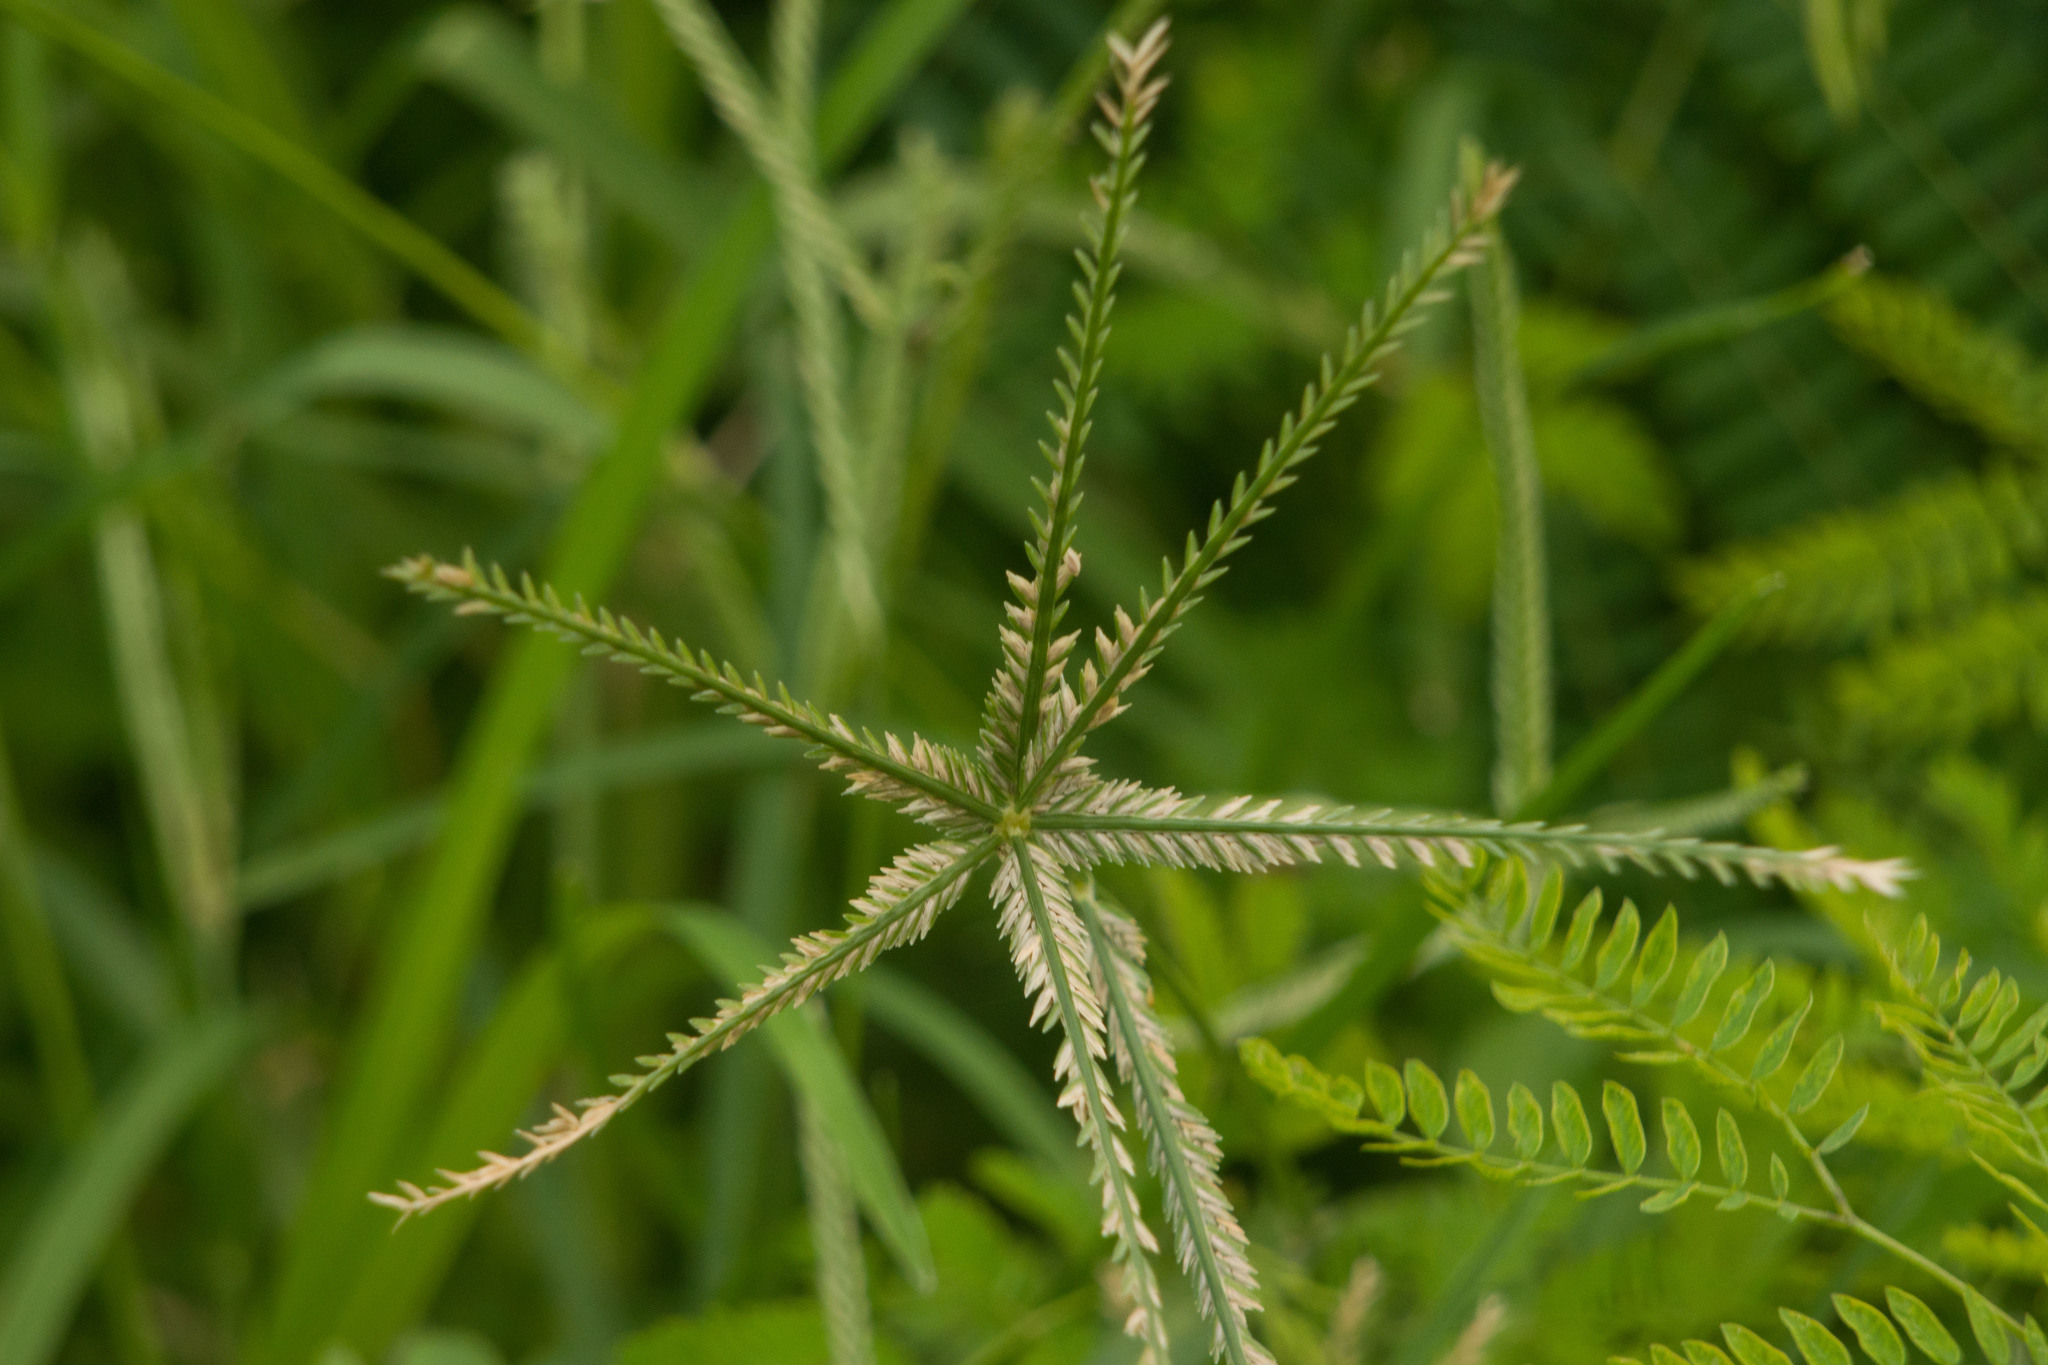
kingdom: Plantae
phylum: Tracheophyta
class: Liliopsida
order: Poales
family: Poaceae
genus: Eleusine
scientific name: Eleusine indica
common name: Yard-grass
